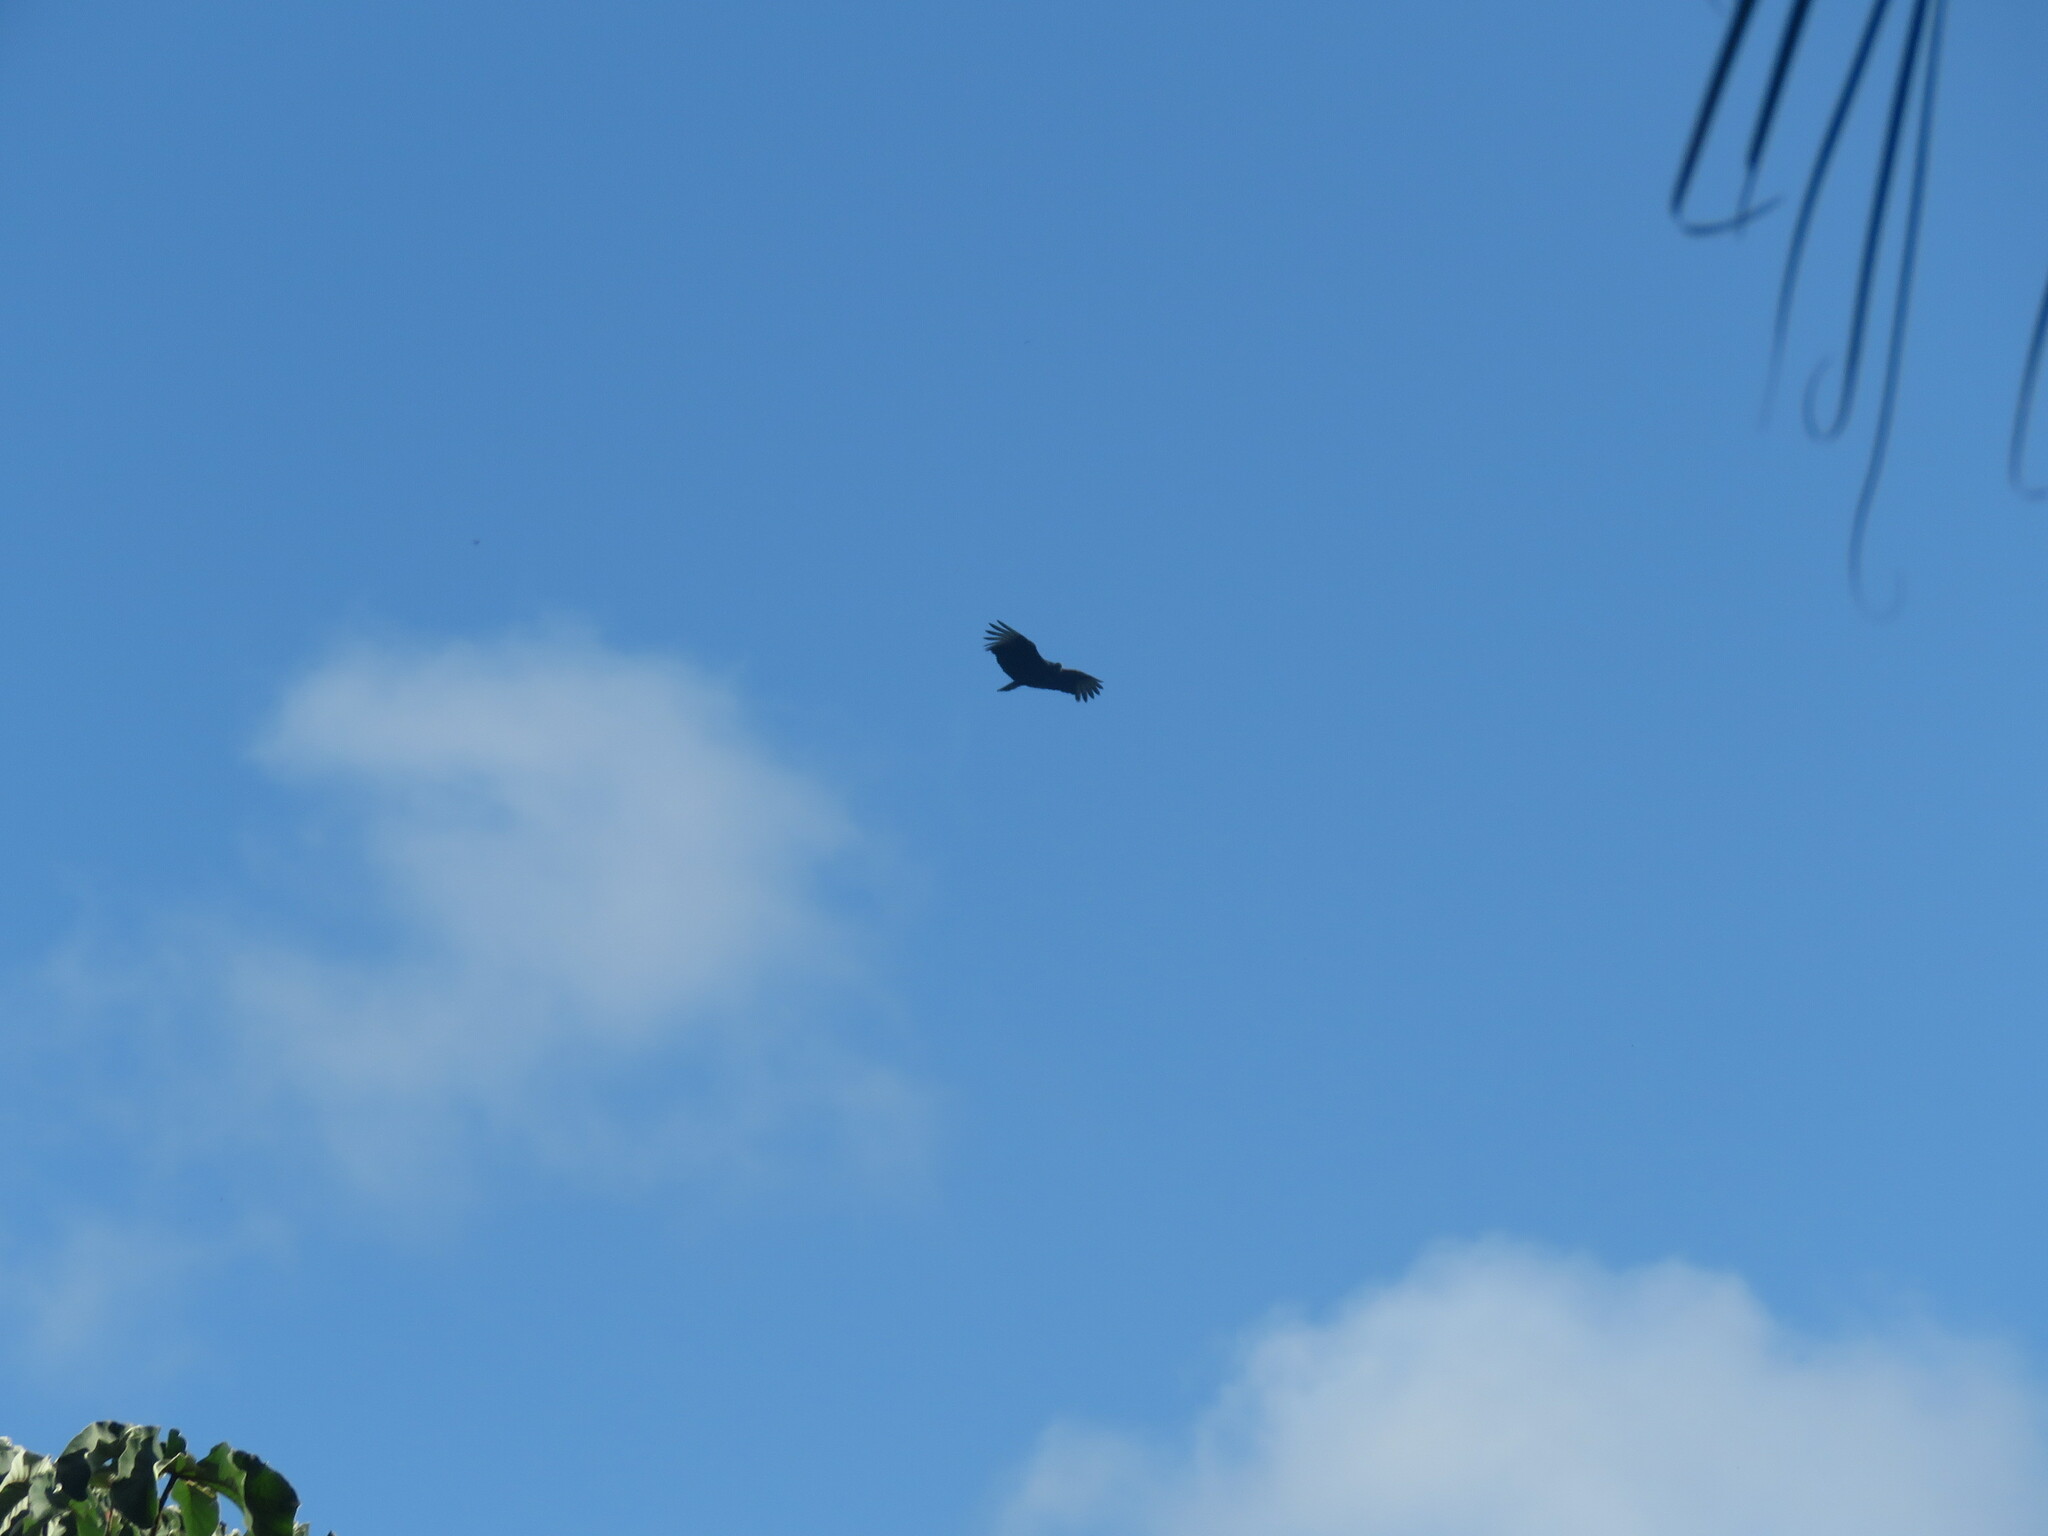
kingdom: Animalia
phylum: Chordata
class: Aves
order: Accipitriformes
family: Cathartidae
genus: Coragyps
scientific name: Coragyps atratus
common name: Black vulture
